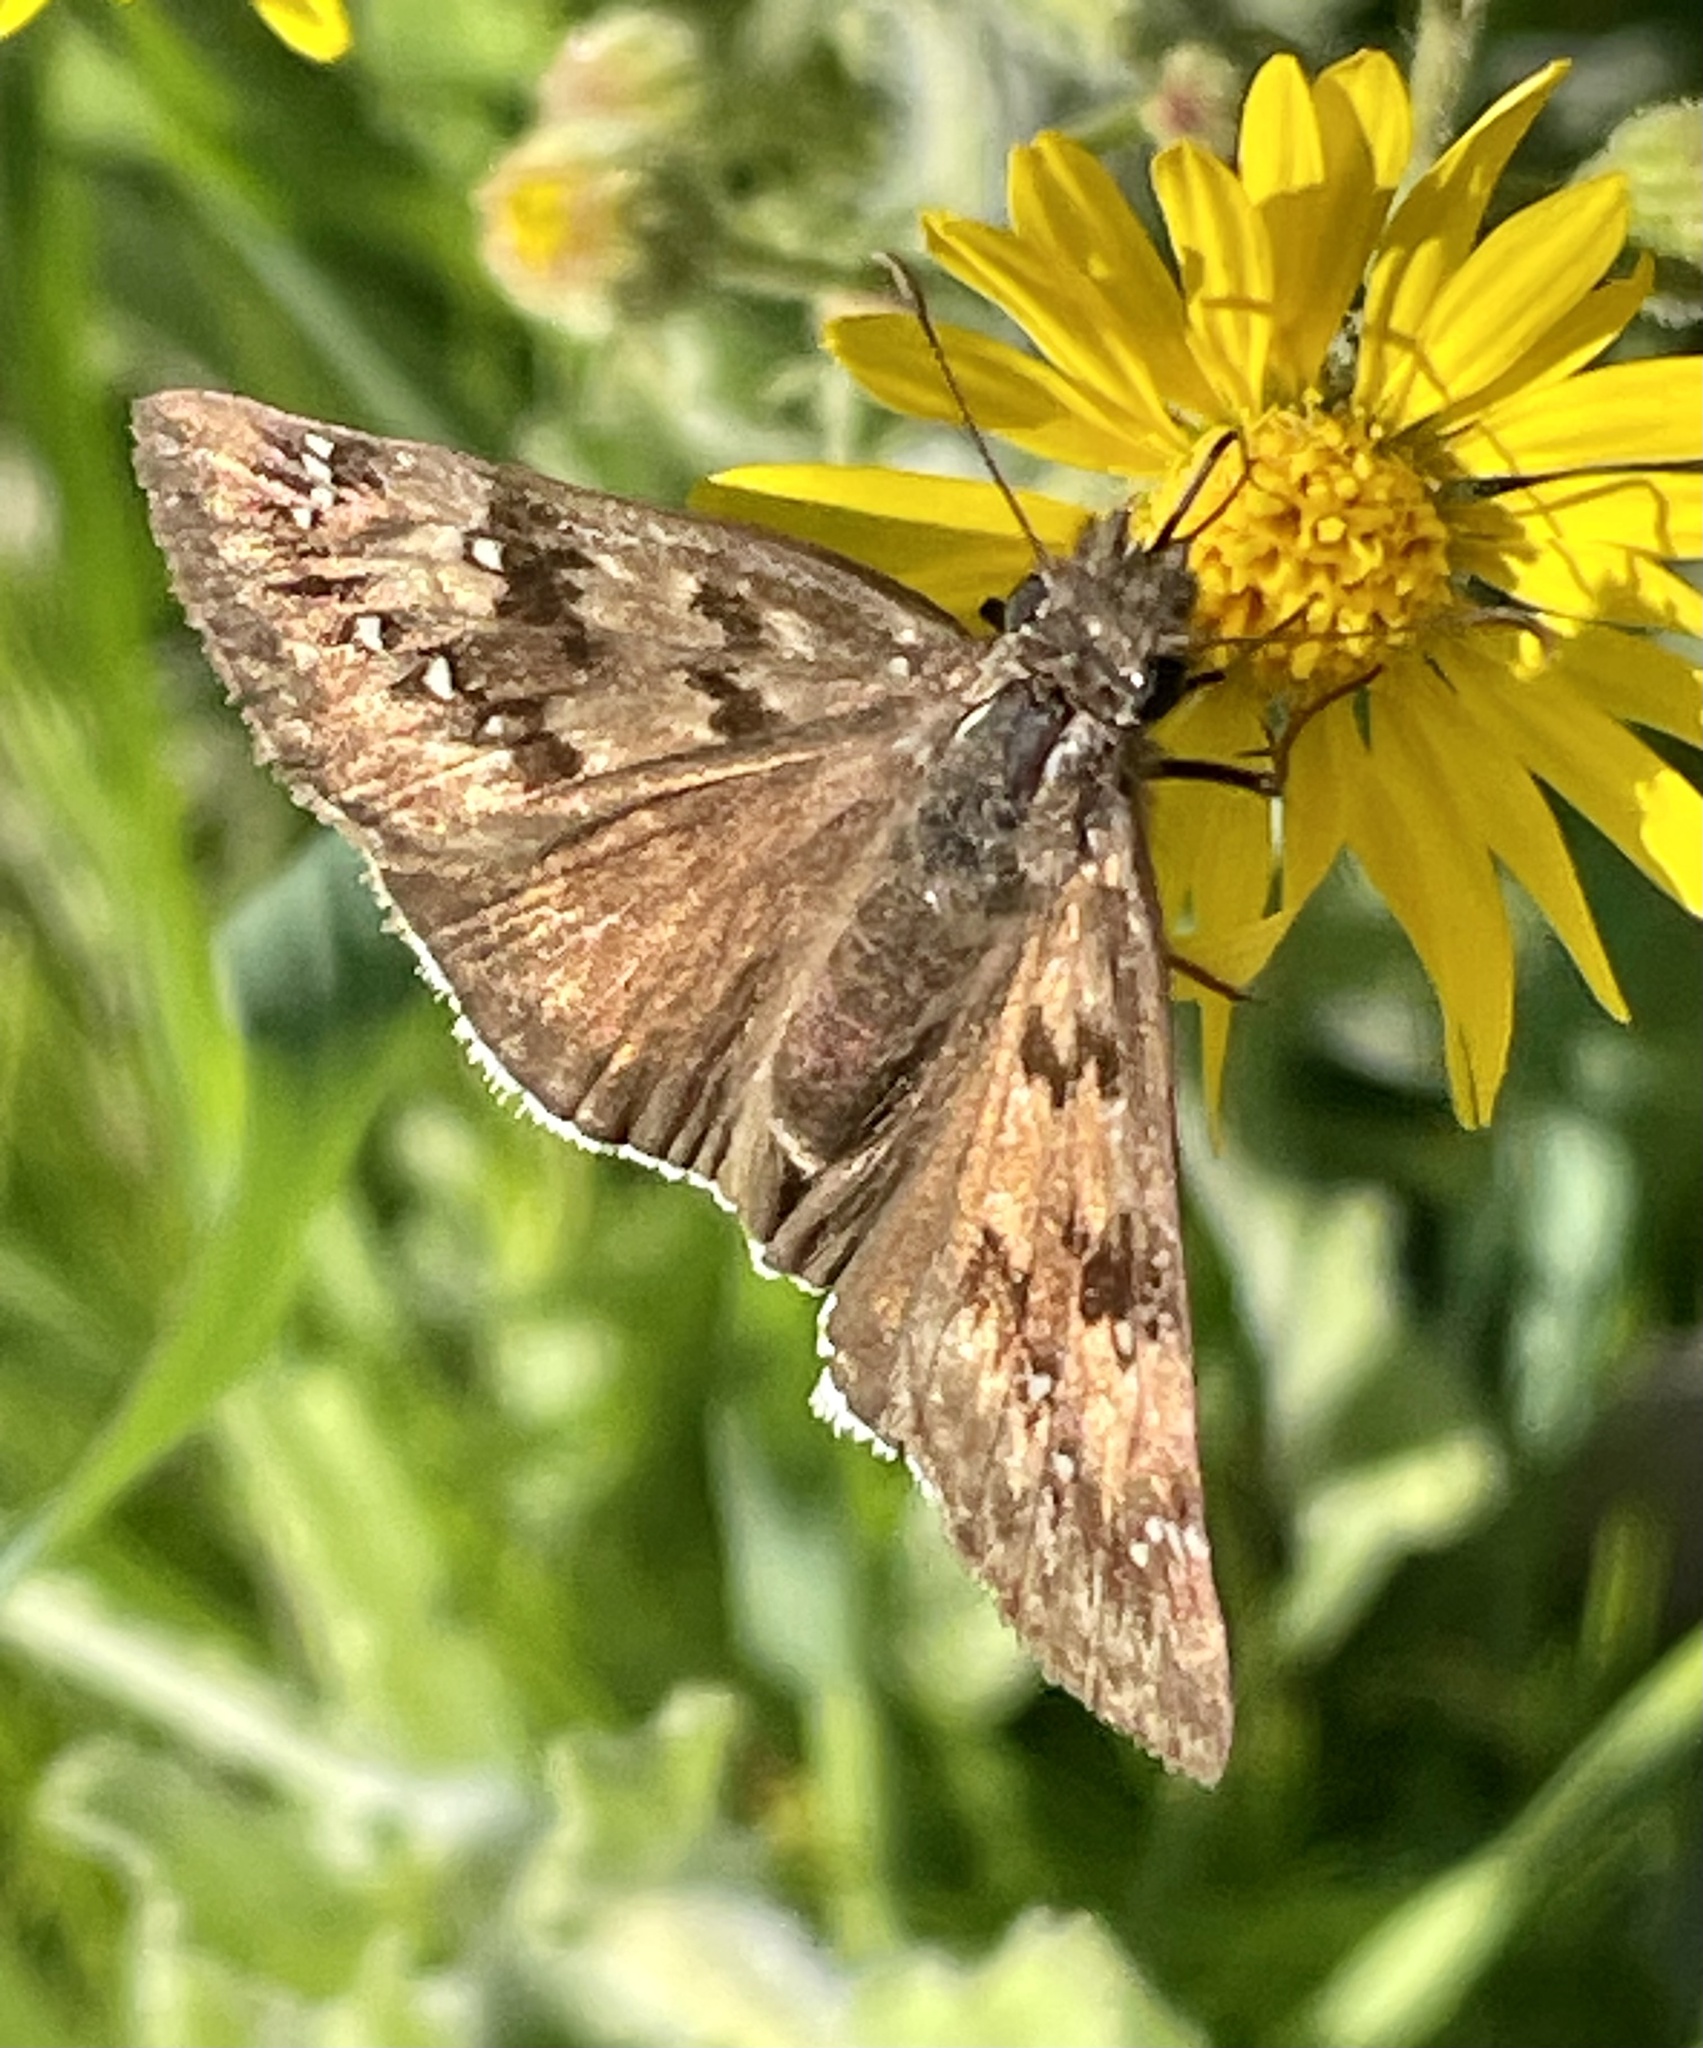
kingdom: Animalia
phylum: Arthropoda
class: Insecta
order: Lepidoptera
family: Hesperiidae
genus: Erynnis
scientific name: Erynnis tristis
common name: Mournful duskywing
